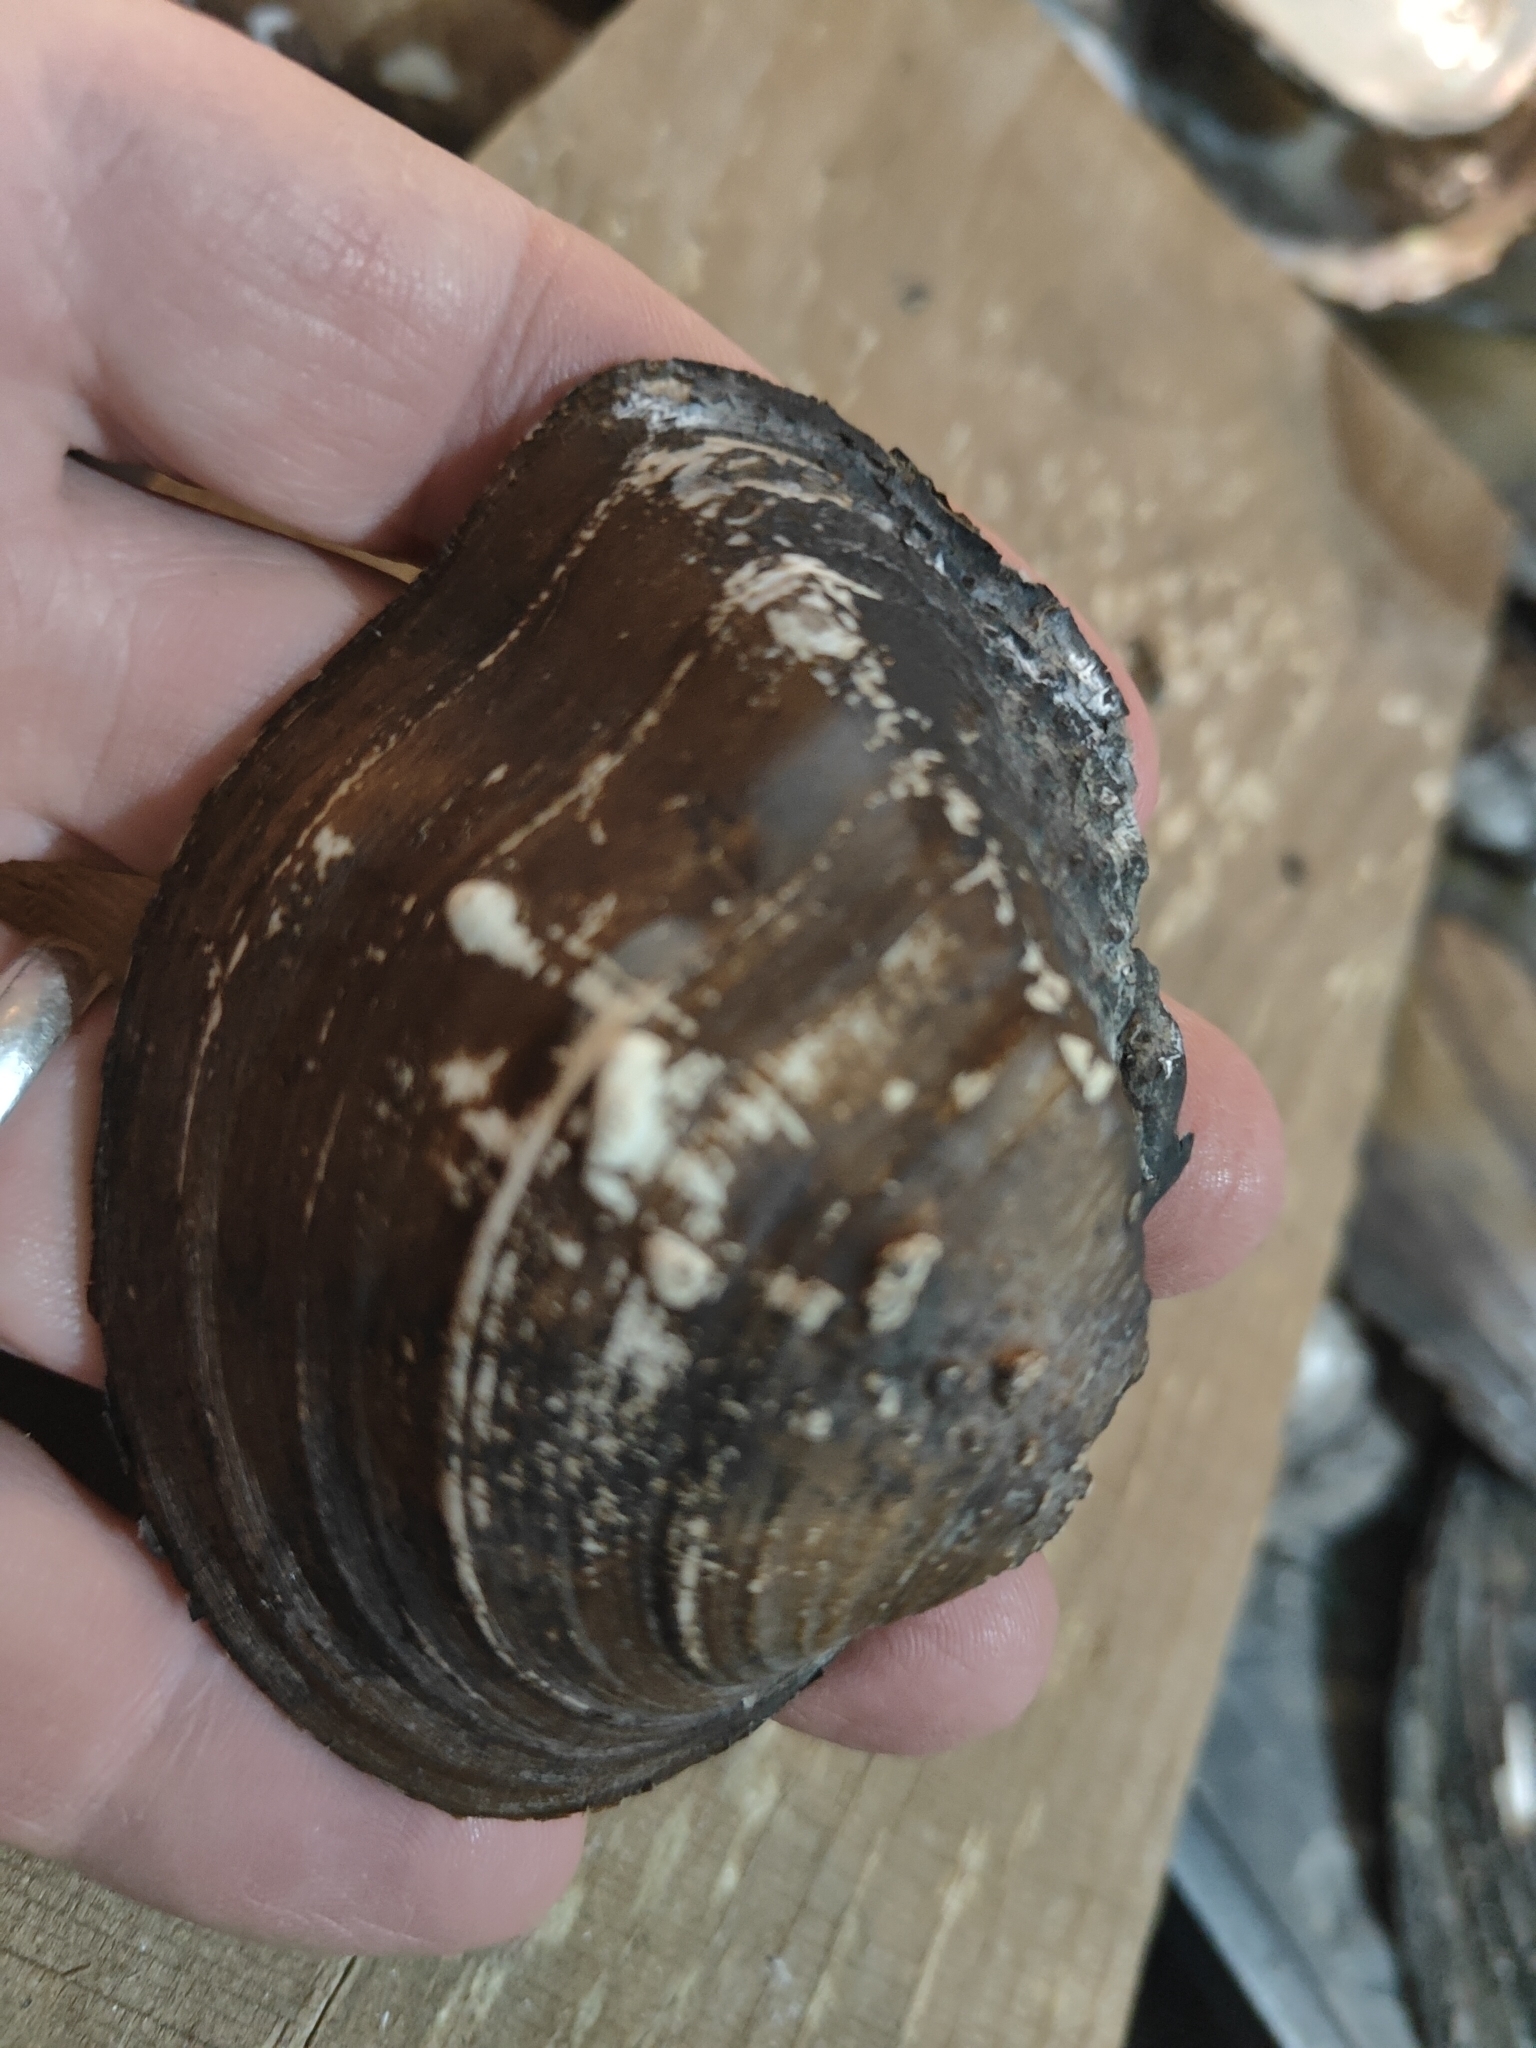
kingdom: Animalia
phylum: Mollusca
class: Bivalvia
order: Unionida
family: Unionidae
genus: Quadrula
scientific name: Quadrula quadrula
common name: Mapleleaf
